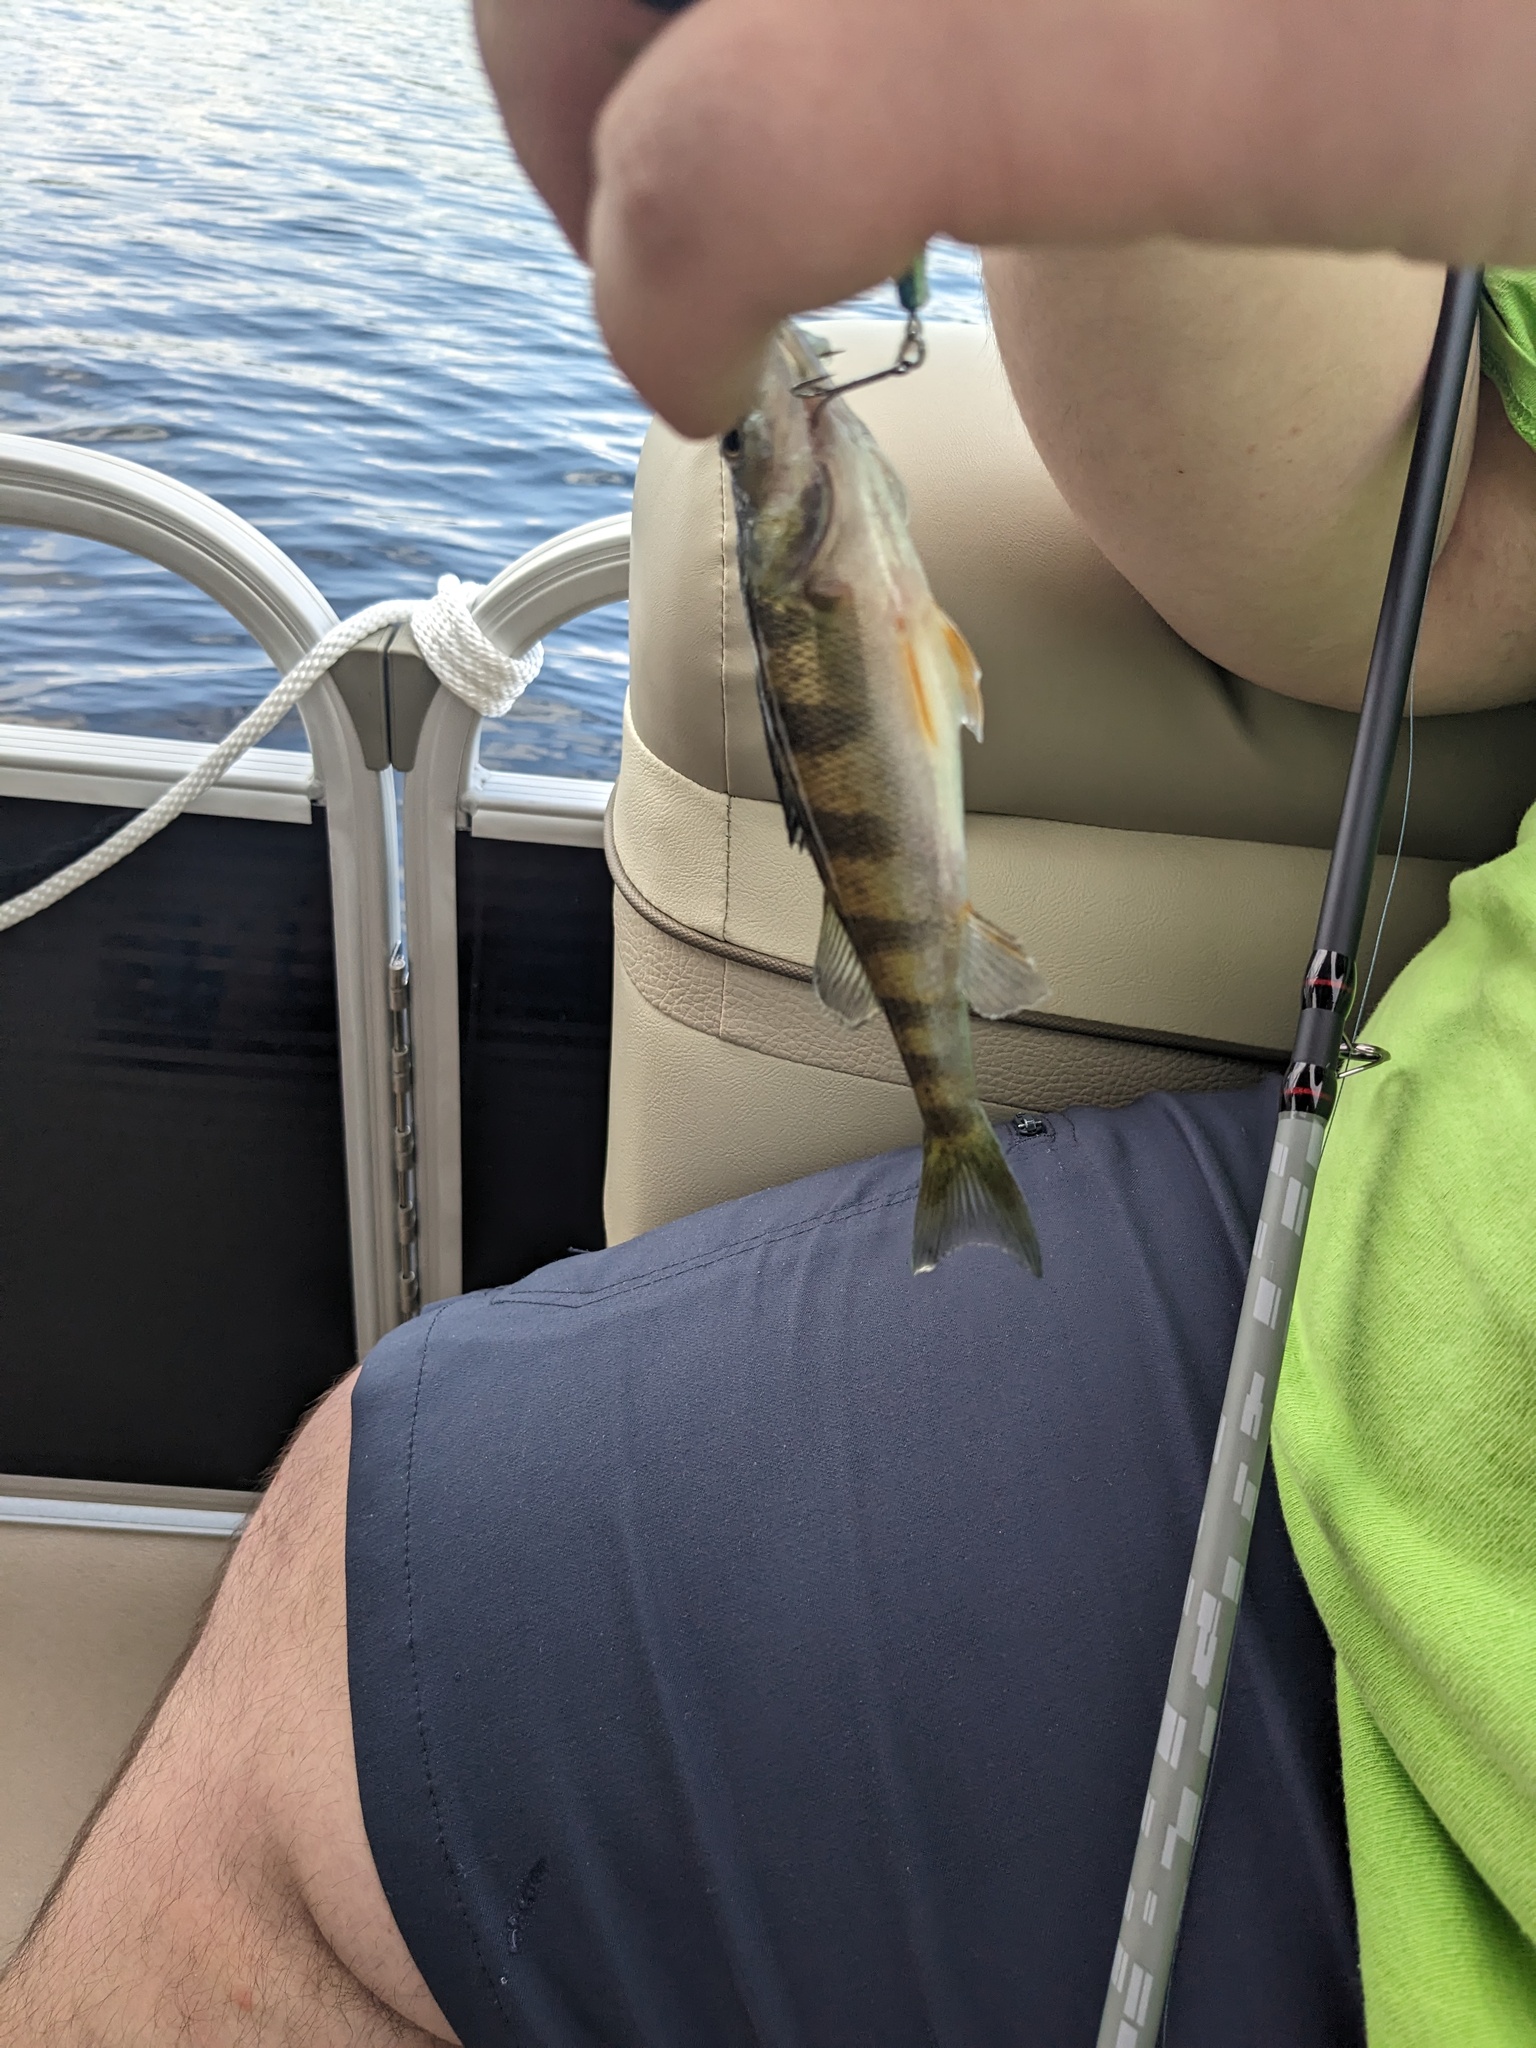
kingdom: Animalia
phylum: Chordata
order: Perciformes
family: Percidae
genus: Perca
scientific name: Perca flavescens
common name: Yellow perch
